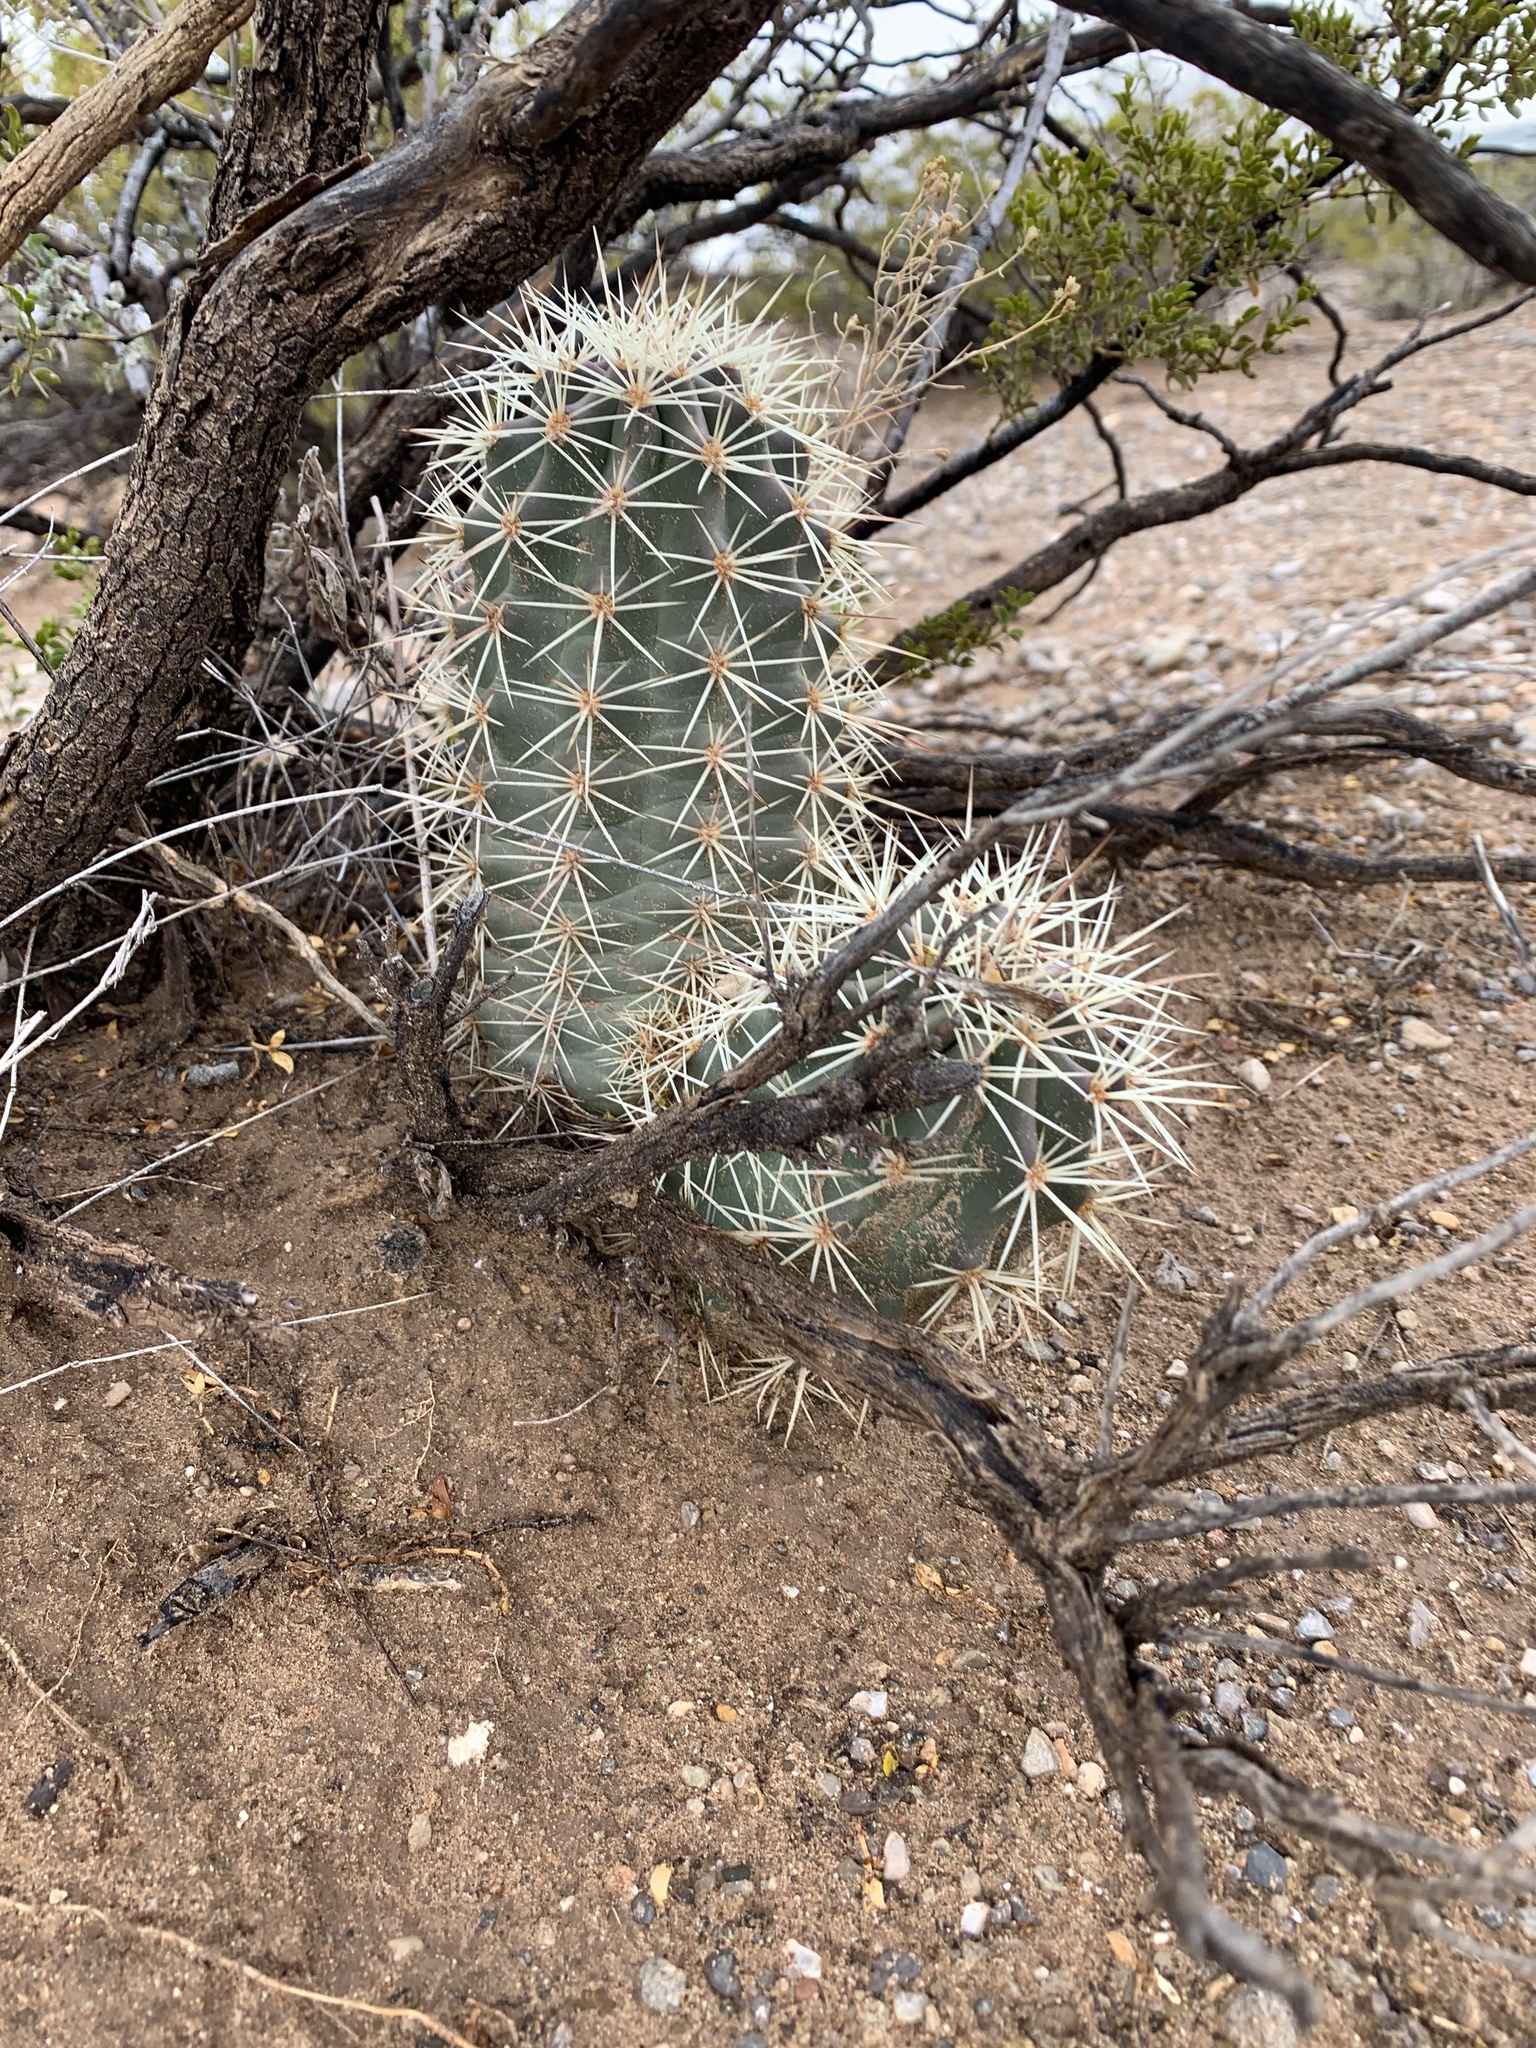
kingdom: Plantae
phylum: Tracheophyta
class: Magnoliopsida
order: Caryophyllales
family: Cactaceae
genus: Echinocereus
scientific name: Echinocereus coccineus
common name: Scarlet hedgehog cactus
